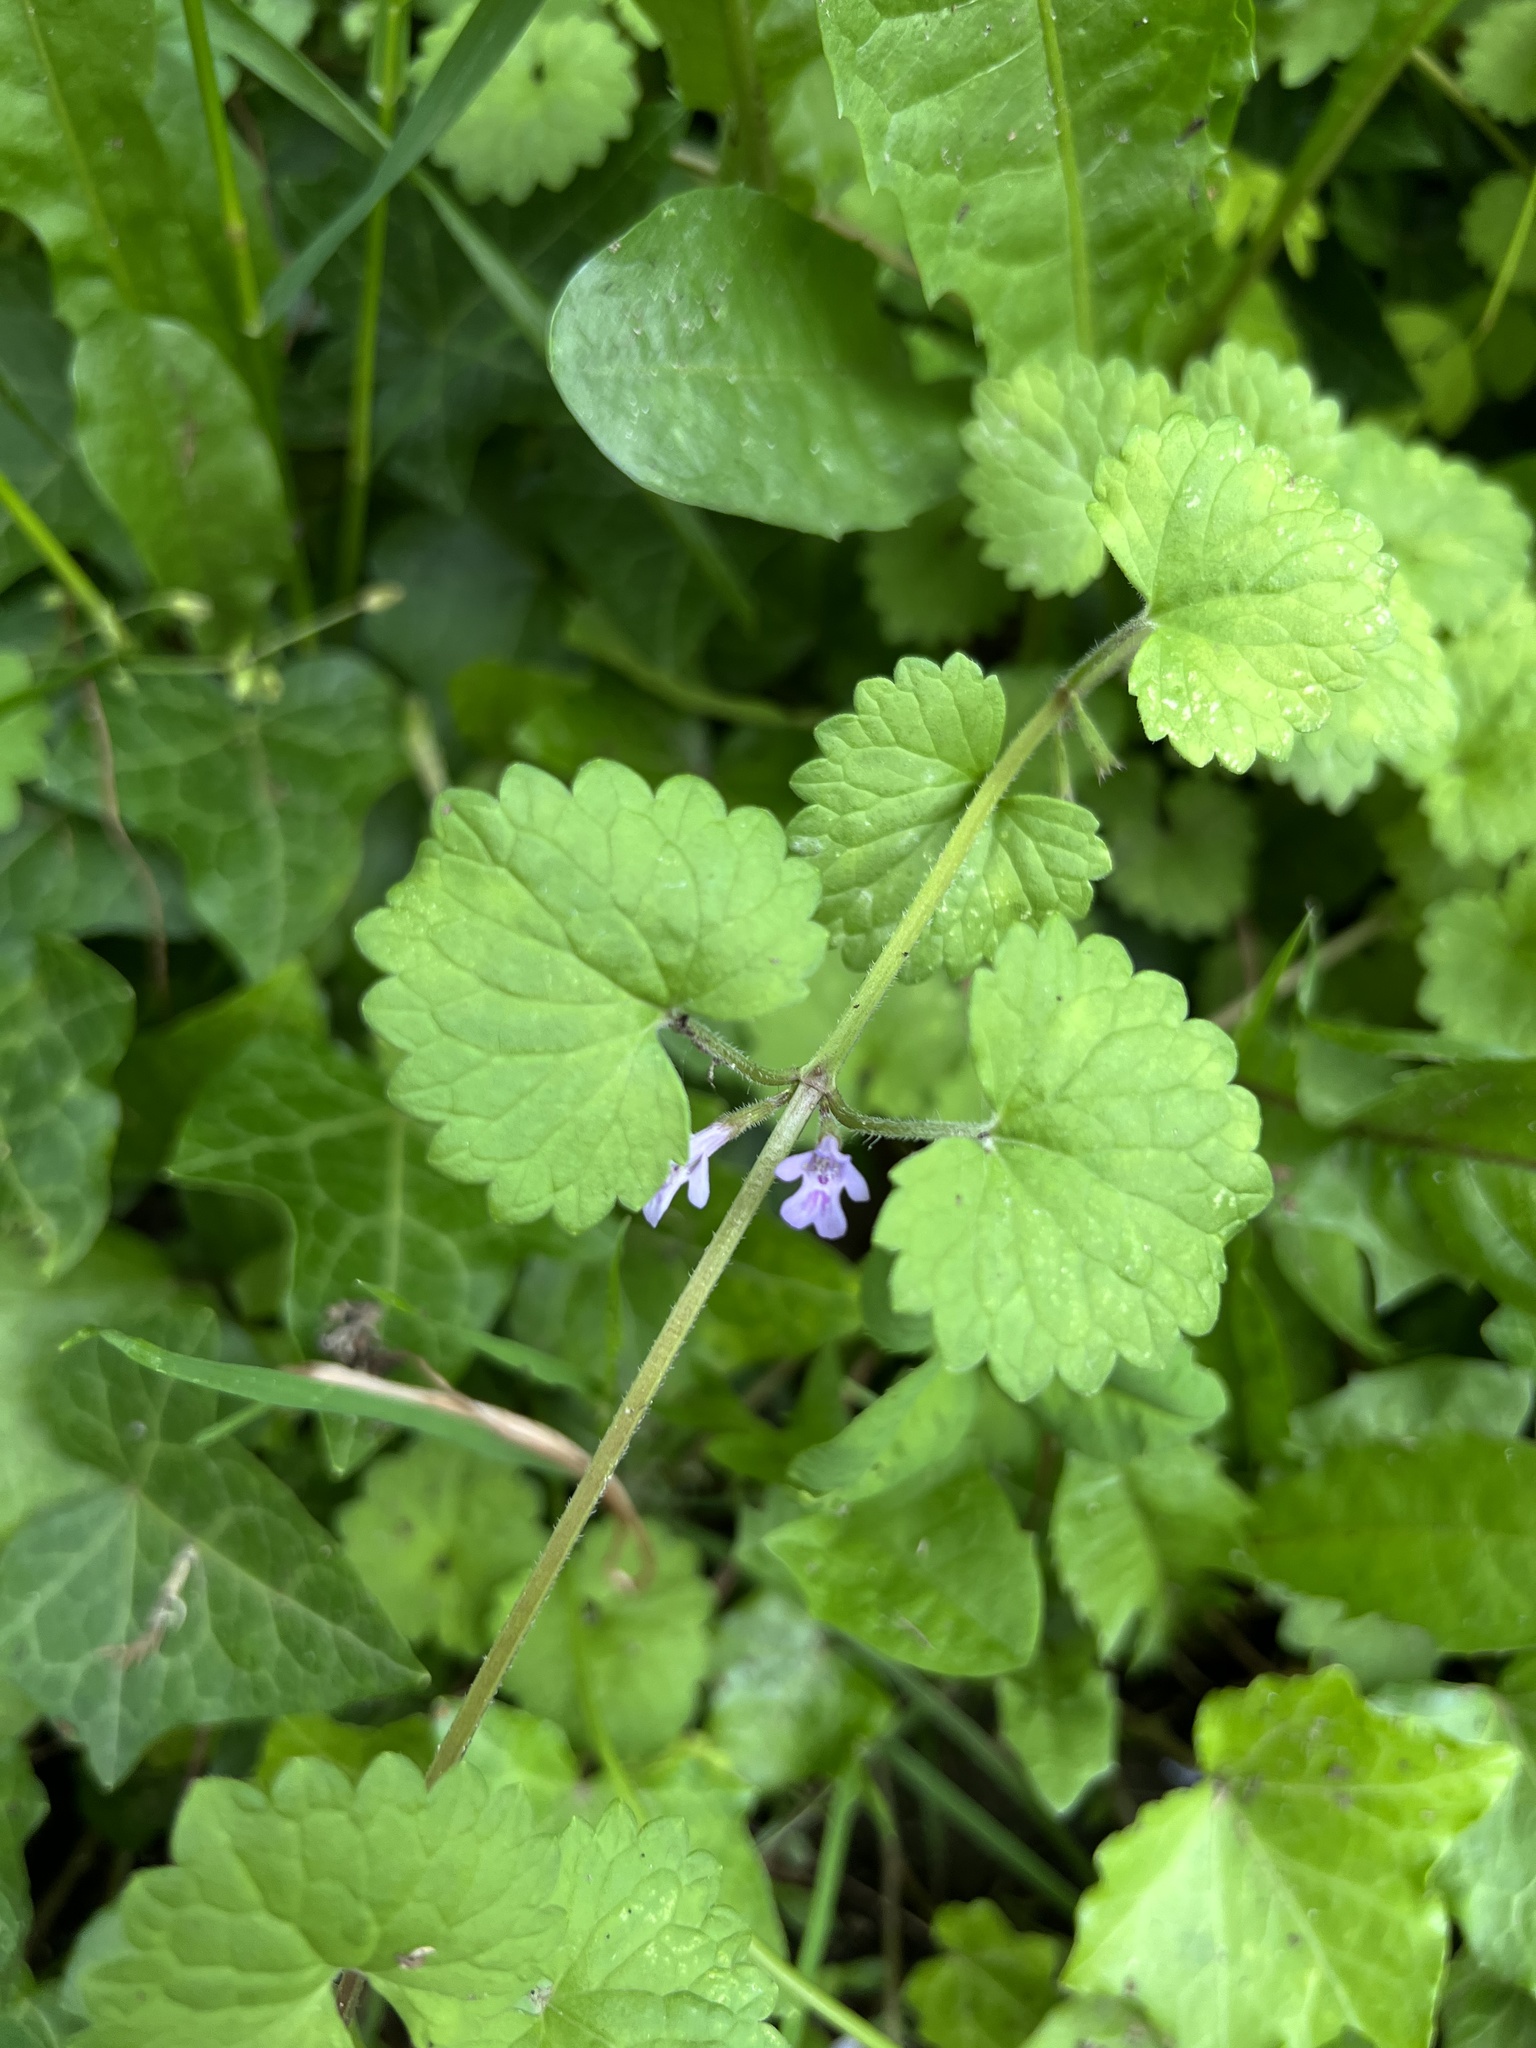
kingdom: Plantae
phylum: Tracheophyta
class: Magnoliopsida
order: Lamiales
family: Lamiaceae
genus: Glechoma
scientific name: Glechoma hederacea
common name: Ground ivy
